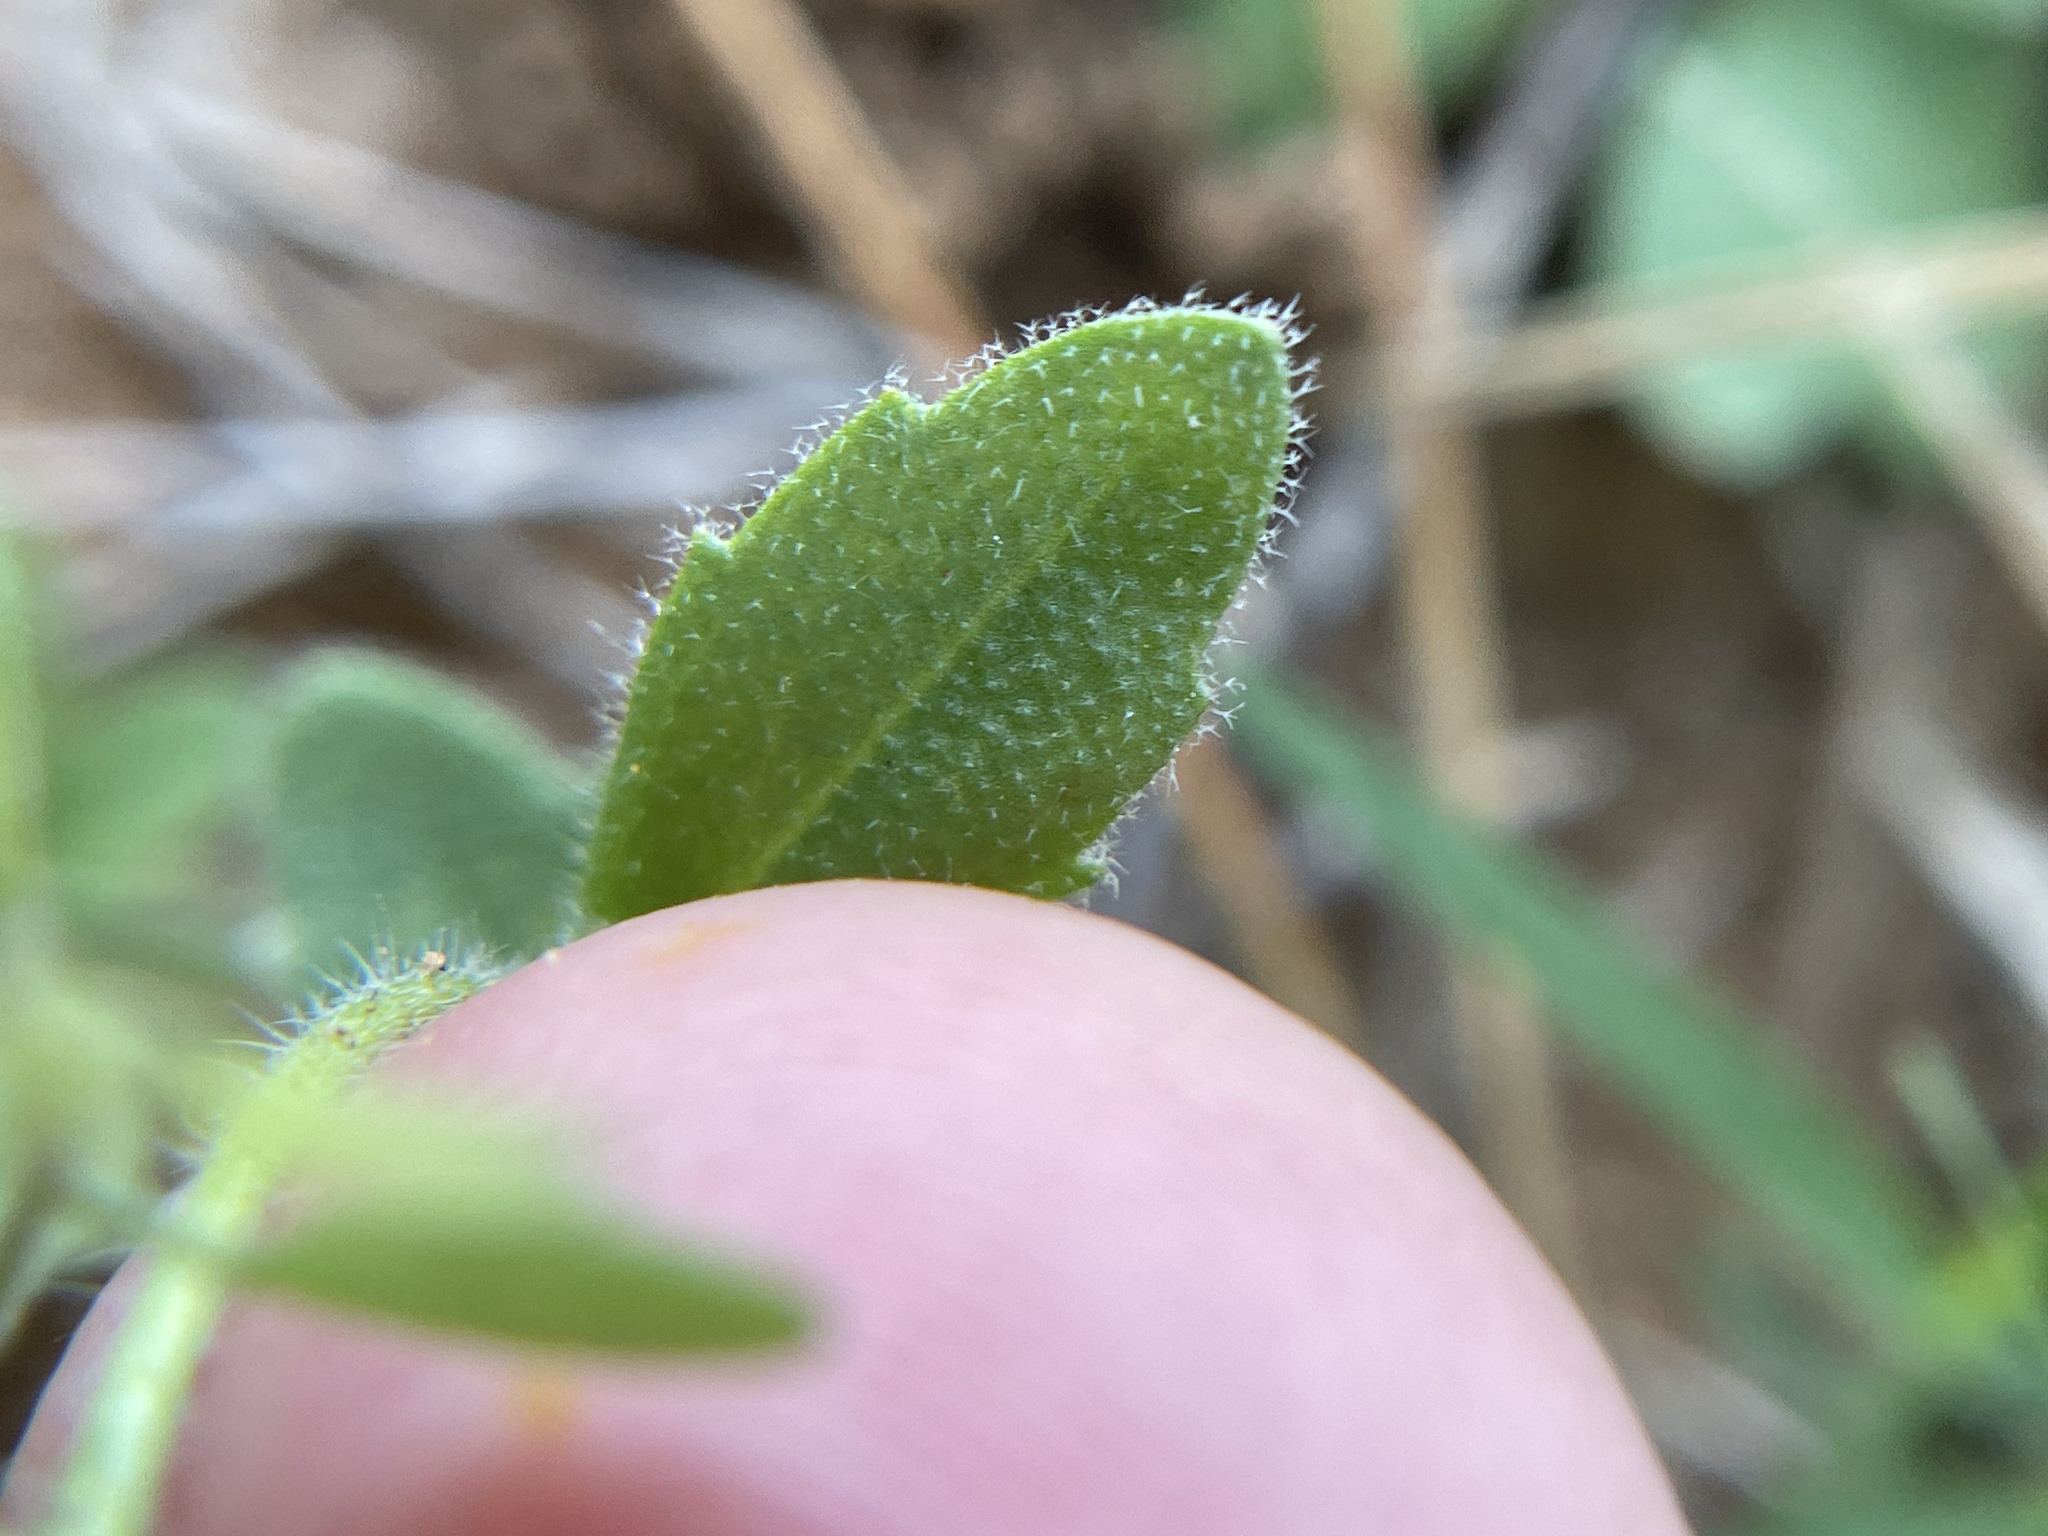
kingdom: Plantae
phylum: Tracheophyta
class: Magnoliopsida
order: Brassicales
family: Brassicaceae
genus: Tomostima
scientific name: Tomostima platycarpa
